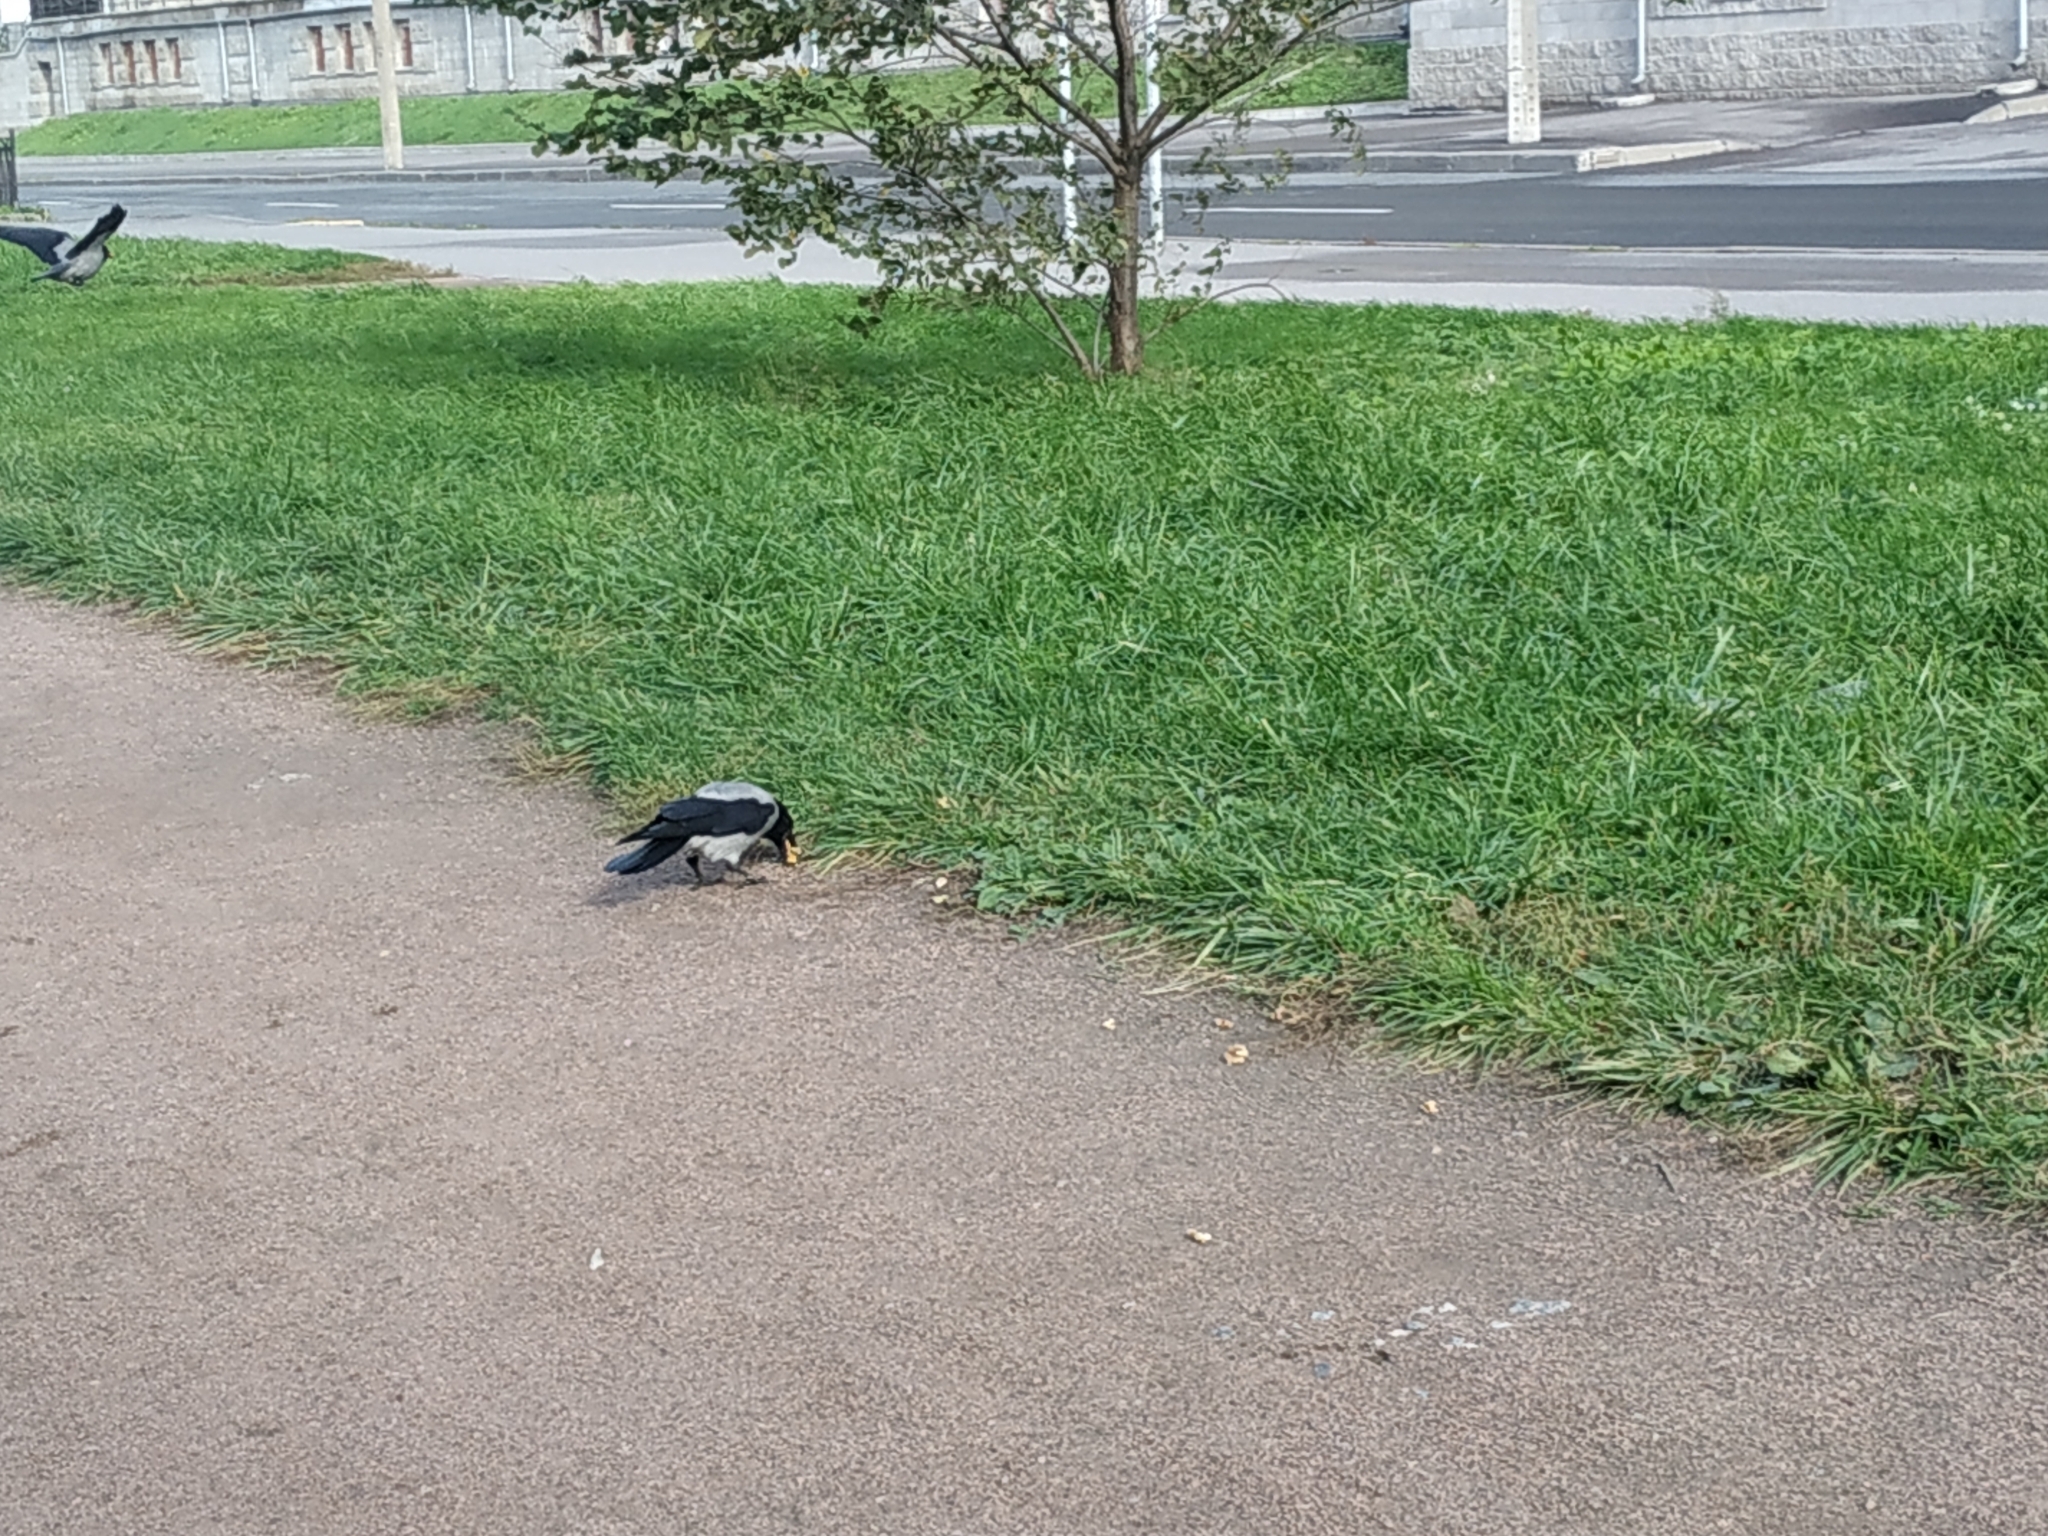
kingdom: Animalia
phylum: Chordata
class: Aves
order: Passeriformes
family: Corvidae
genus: Corvus
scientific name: Corvus cornix
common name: Hooded crow
